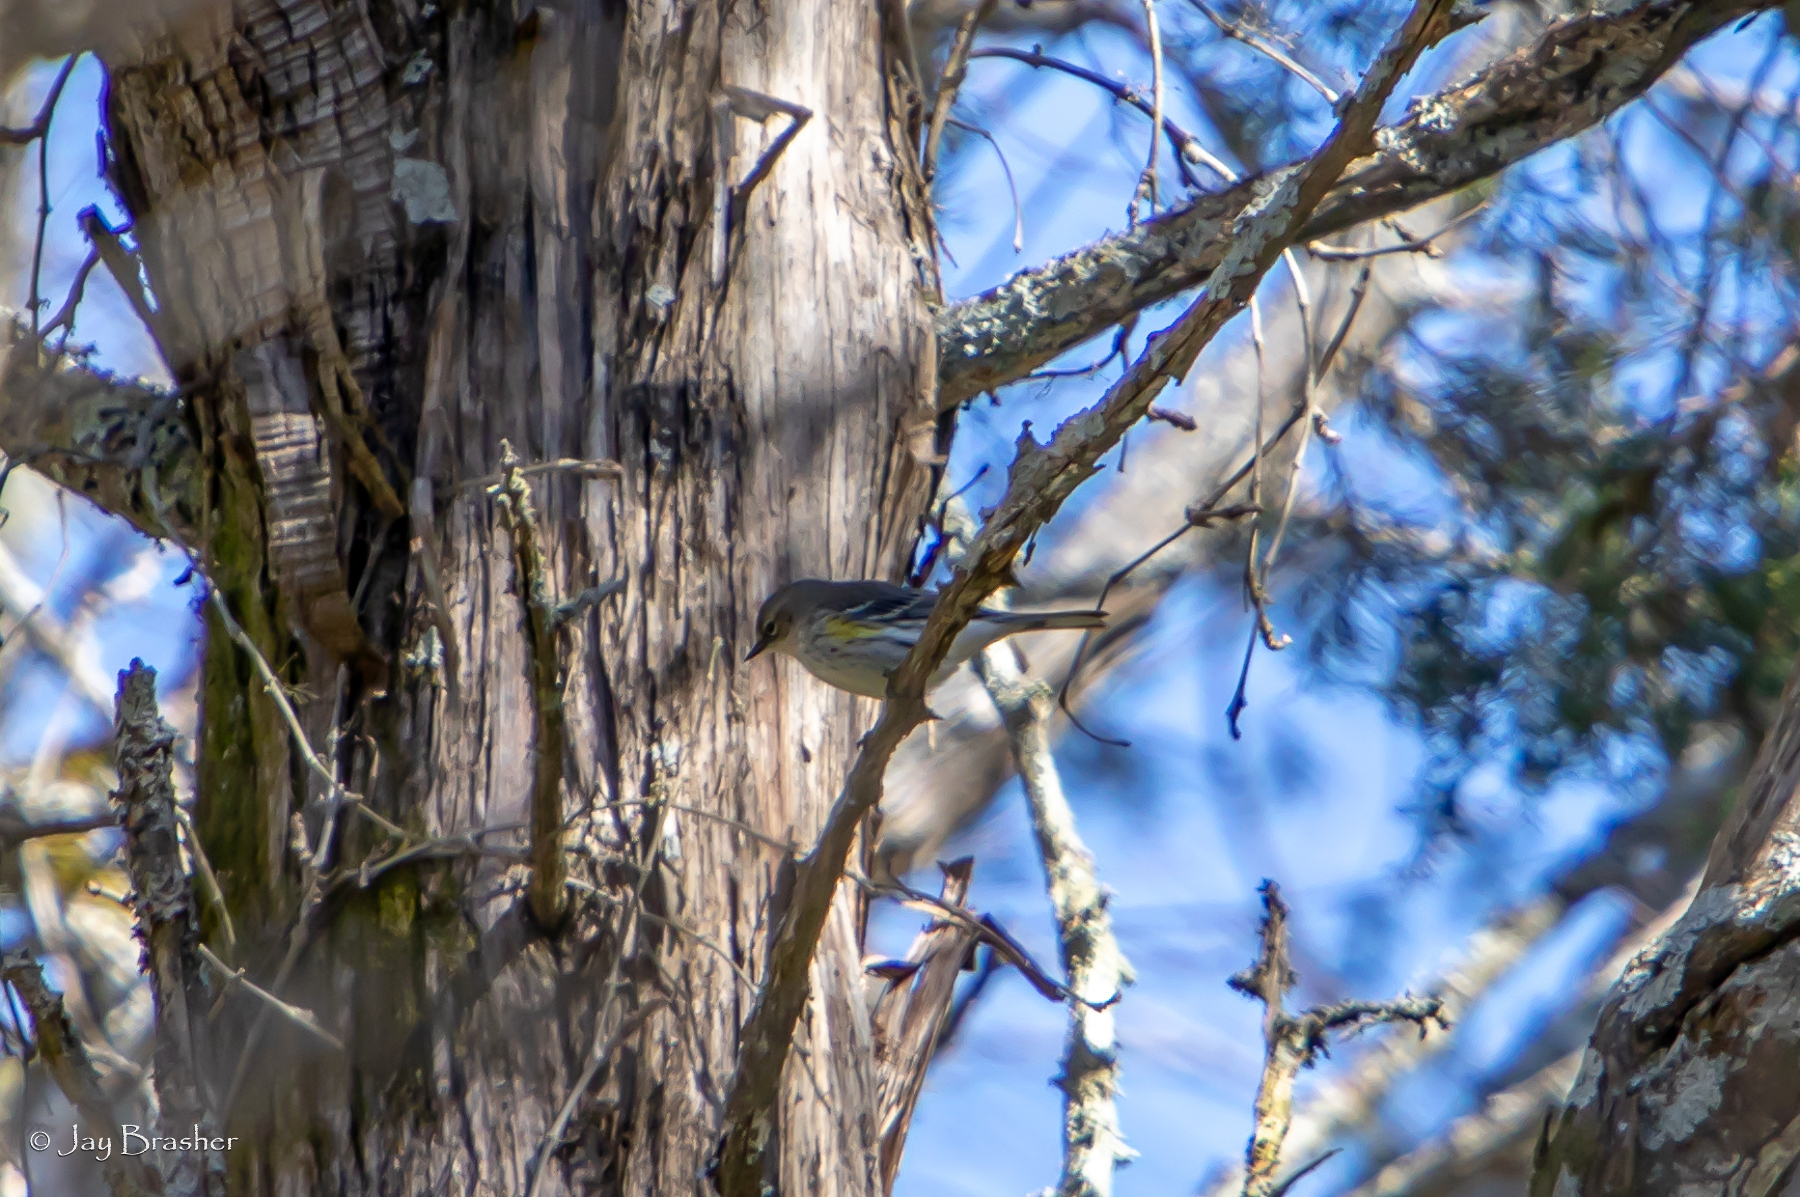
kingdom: Animalia
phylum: Chordata
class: Aves
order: Passeriformes
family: Parulidae
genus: Setophaga
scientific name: Setophaga coronata
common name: Myrtle warbler
